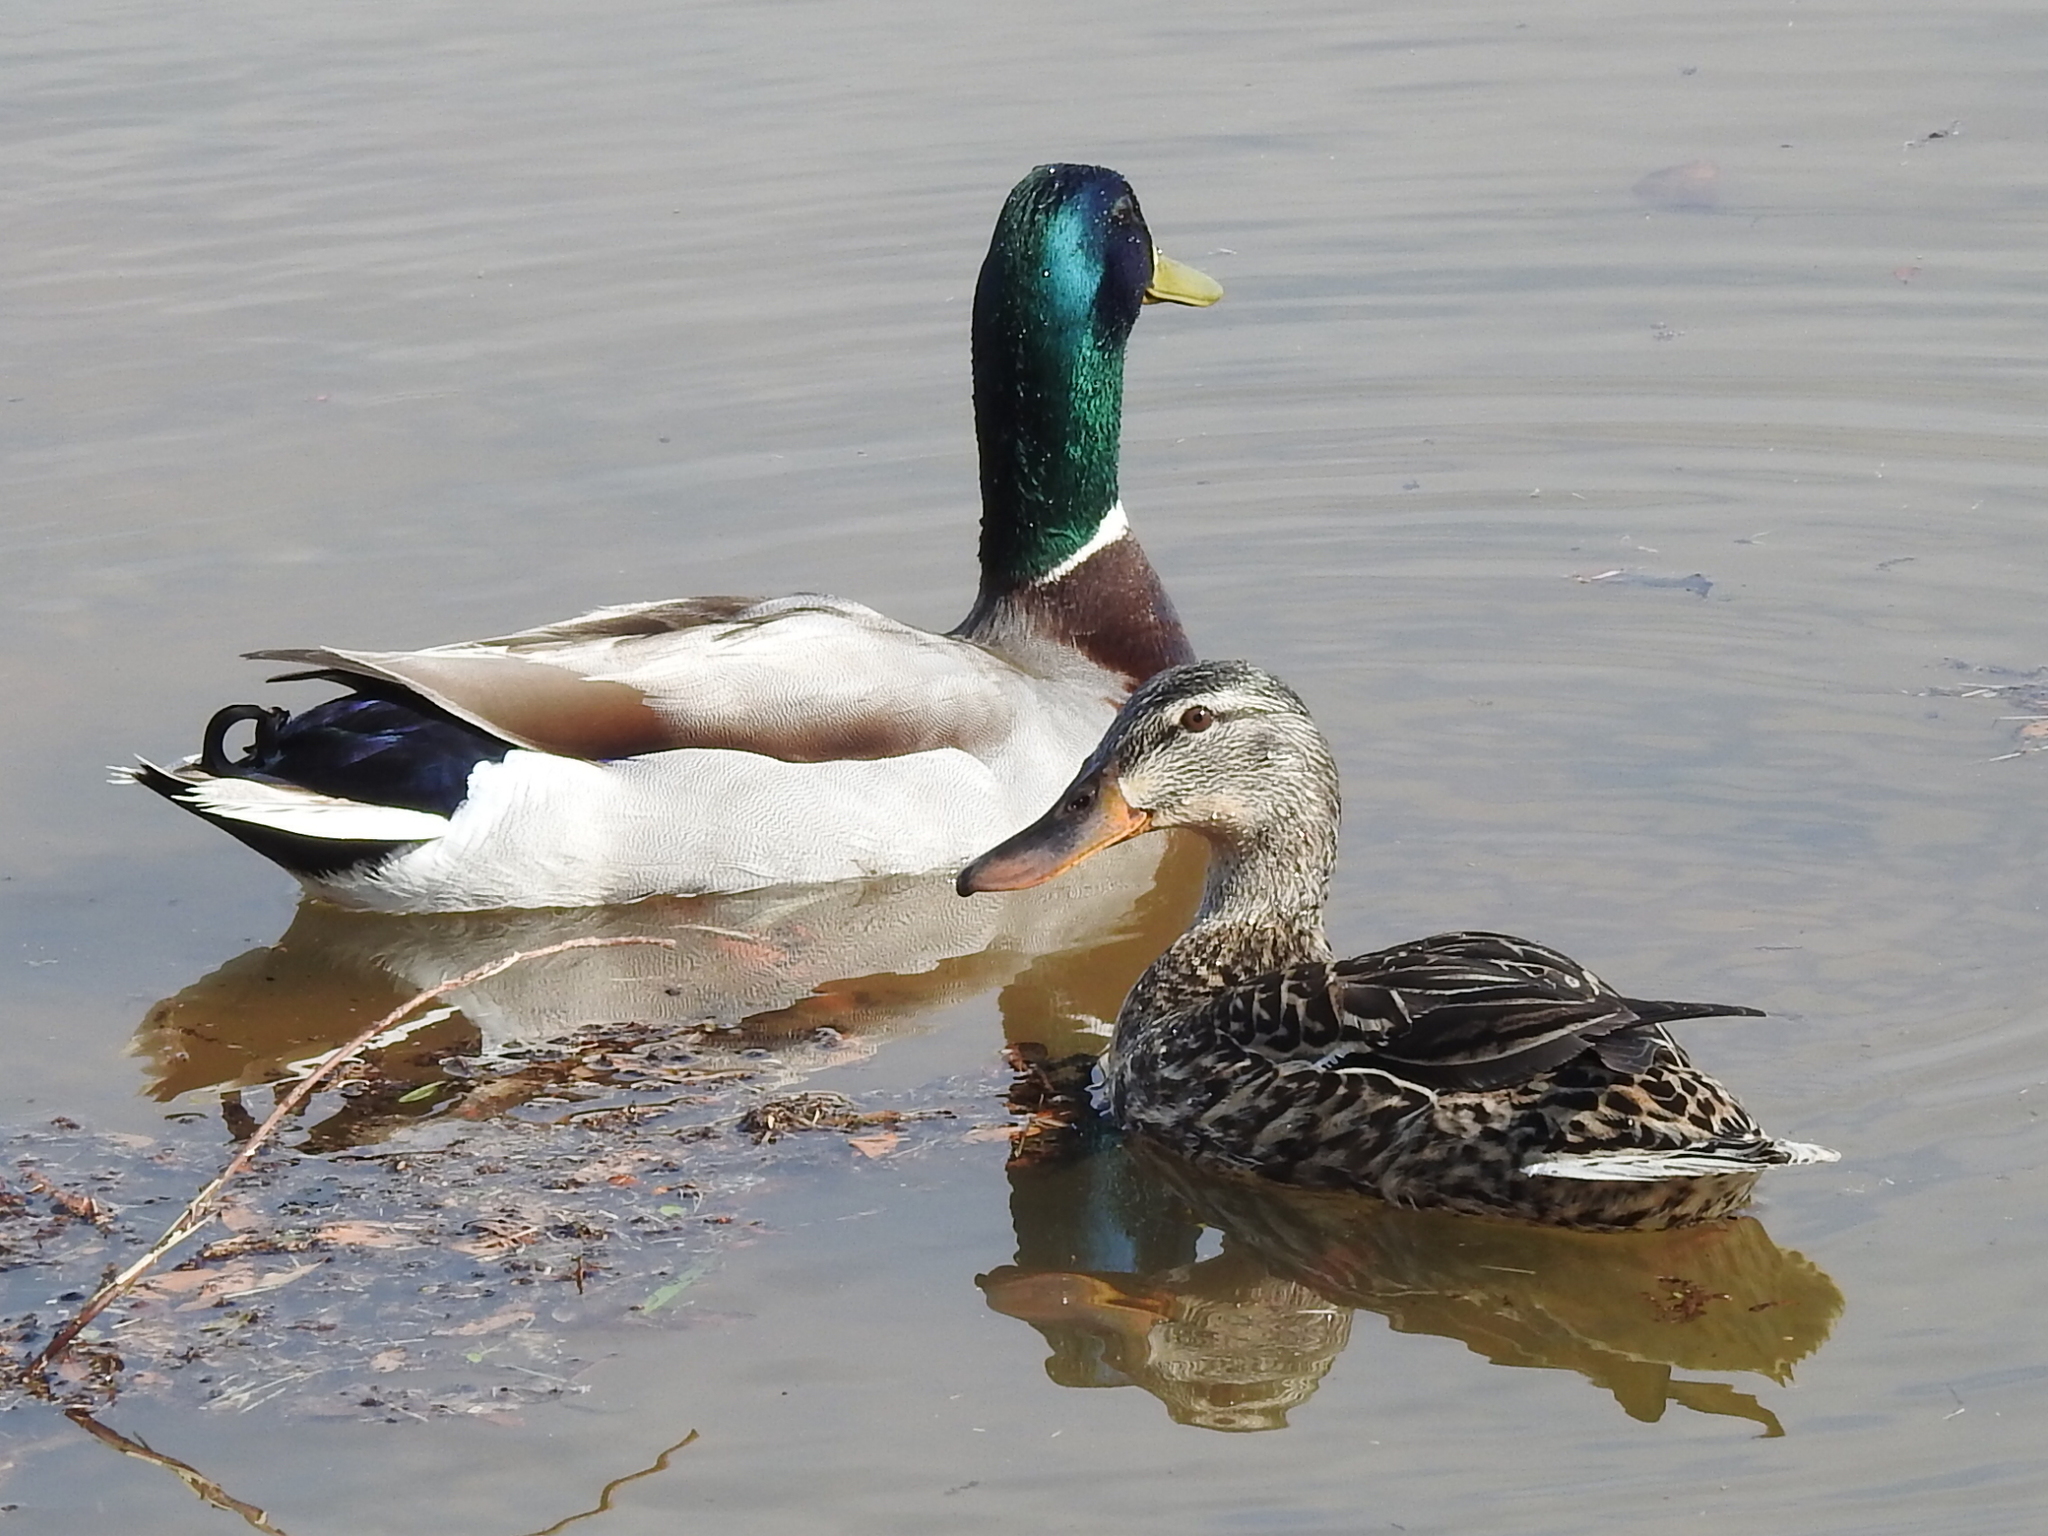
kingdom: Animalia
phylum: Chordata
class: Aves
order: Anseriformes
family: Anatidae
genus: Anas
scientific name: Anas platyrhynchos
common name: Mallard
